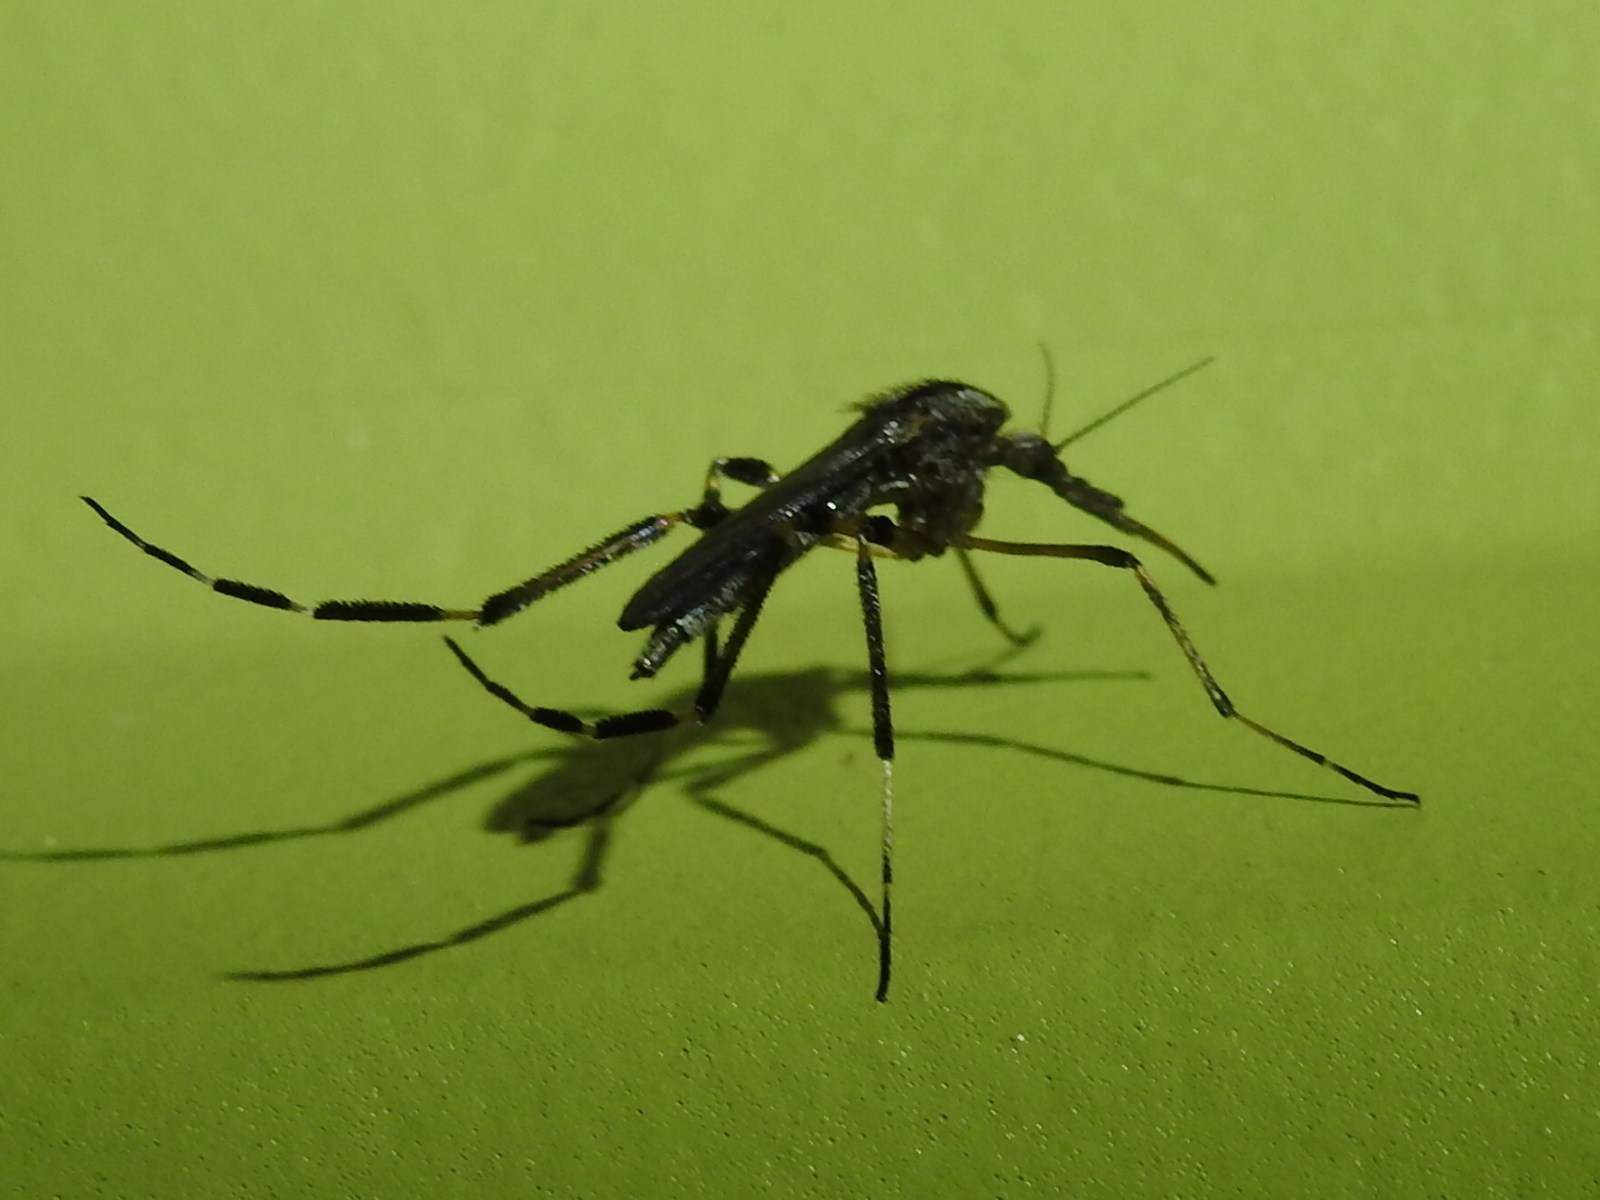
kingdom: Animalia
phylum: Arthropoda
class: Insecta
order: Diptera
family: Culicidae
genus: Psorophora
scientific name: Psorophora ciliata
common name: Gallinipper
